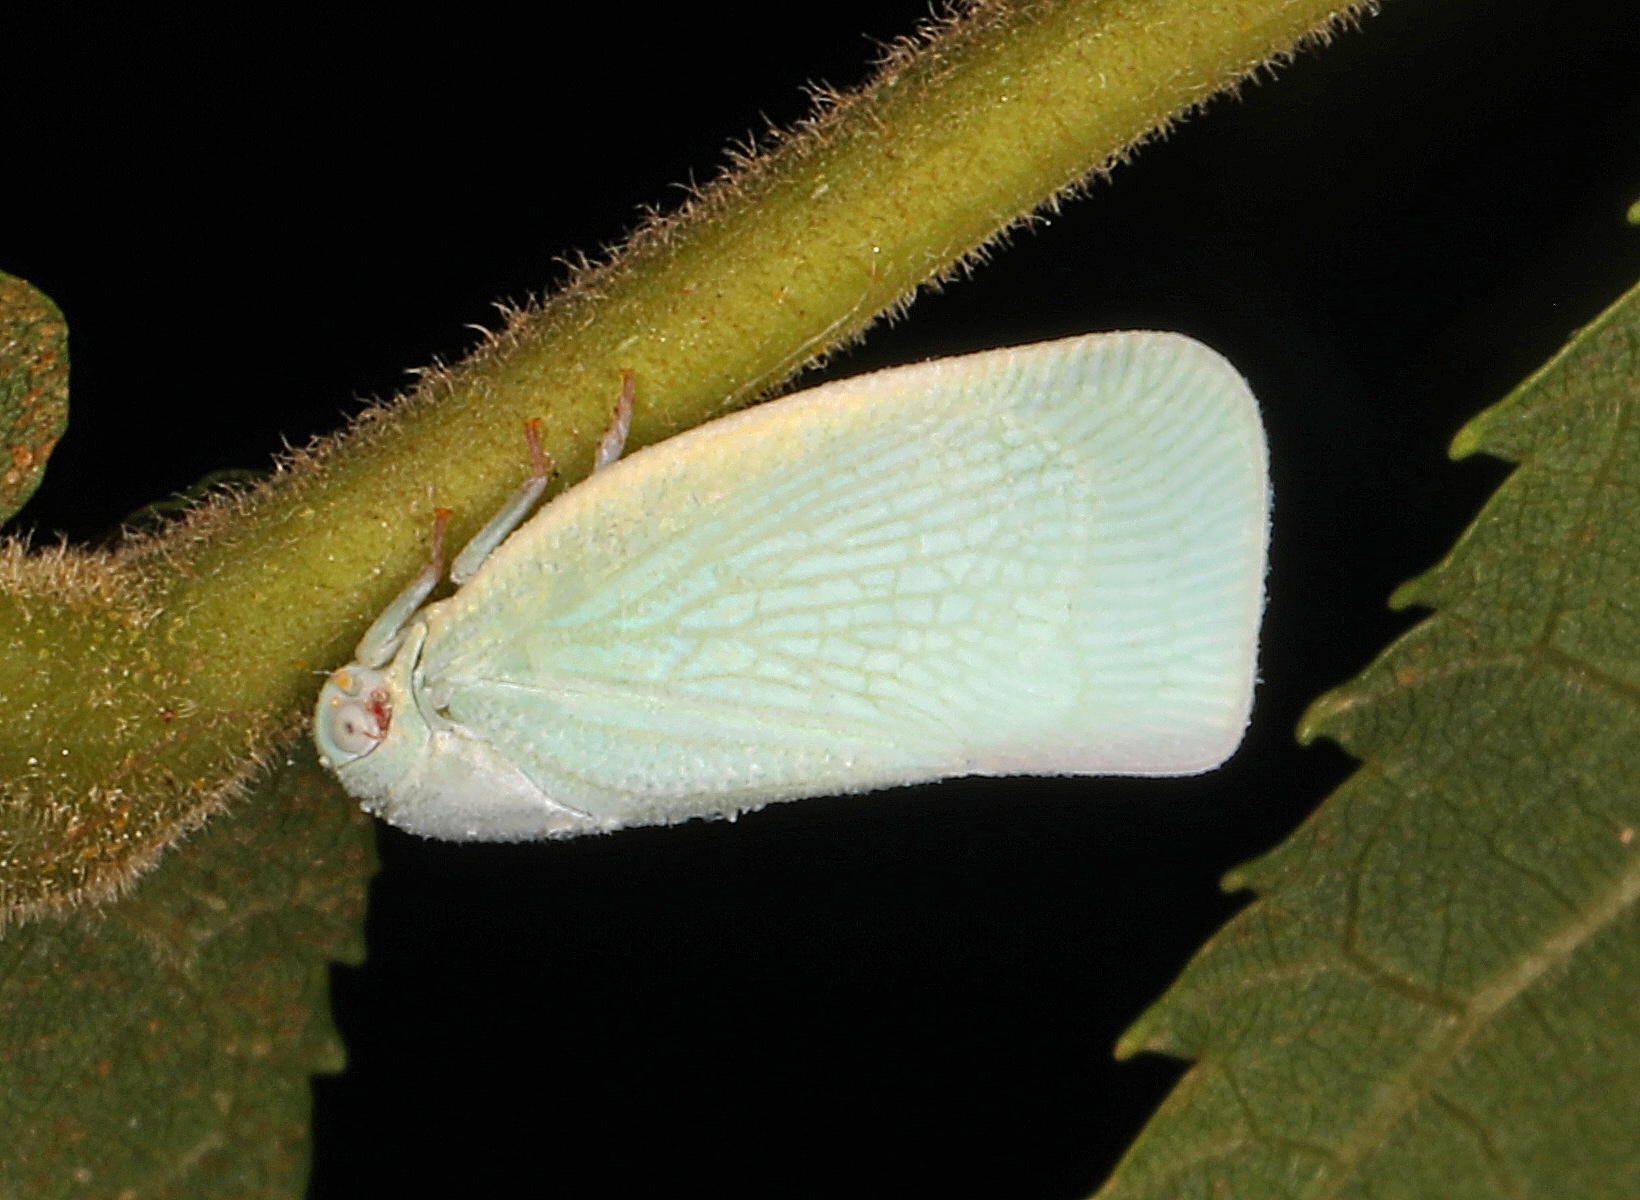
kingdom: Animalia
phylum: Arthropoda
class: Insecta
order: Hemiptera
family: Flatidae
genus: Flatormenis
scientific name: Flatormenis proxima
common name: Northern flatid planthopper
